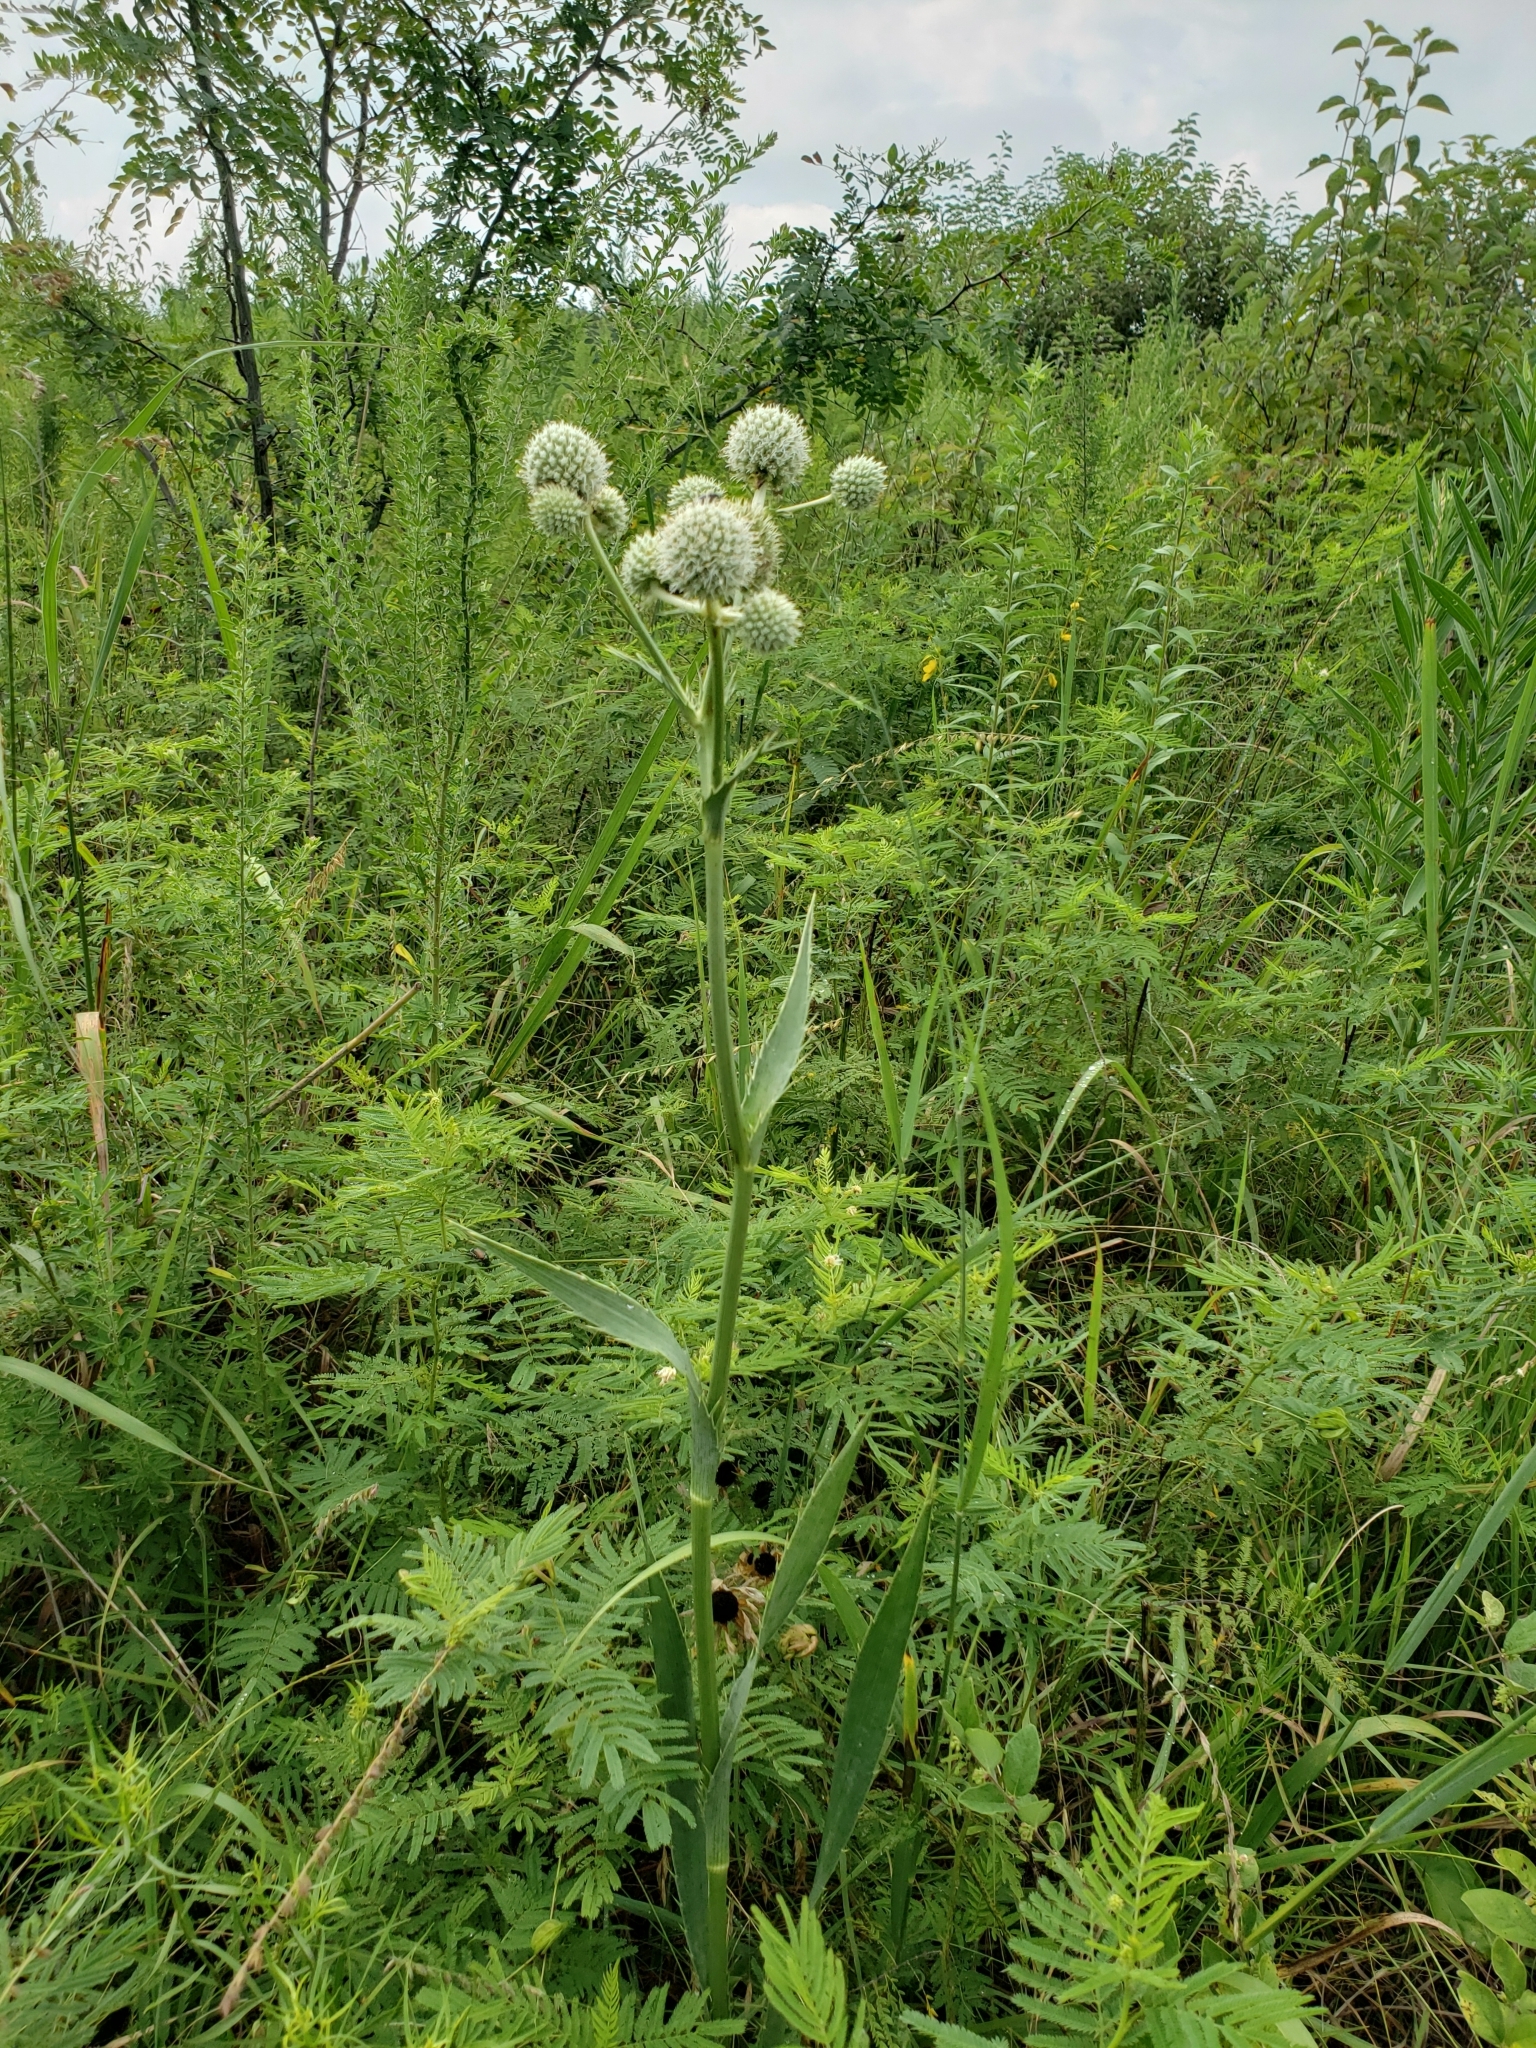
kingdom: Plantae
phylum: Tracheophyta
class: Magnoliopsida
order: Apiales
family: Apiaceae
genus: Eryngium
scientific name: Eryngium yuccifolium
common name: Button eryngo
